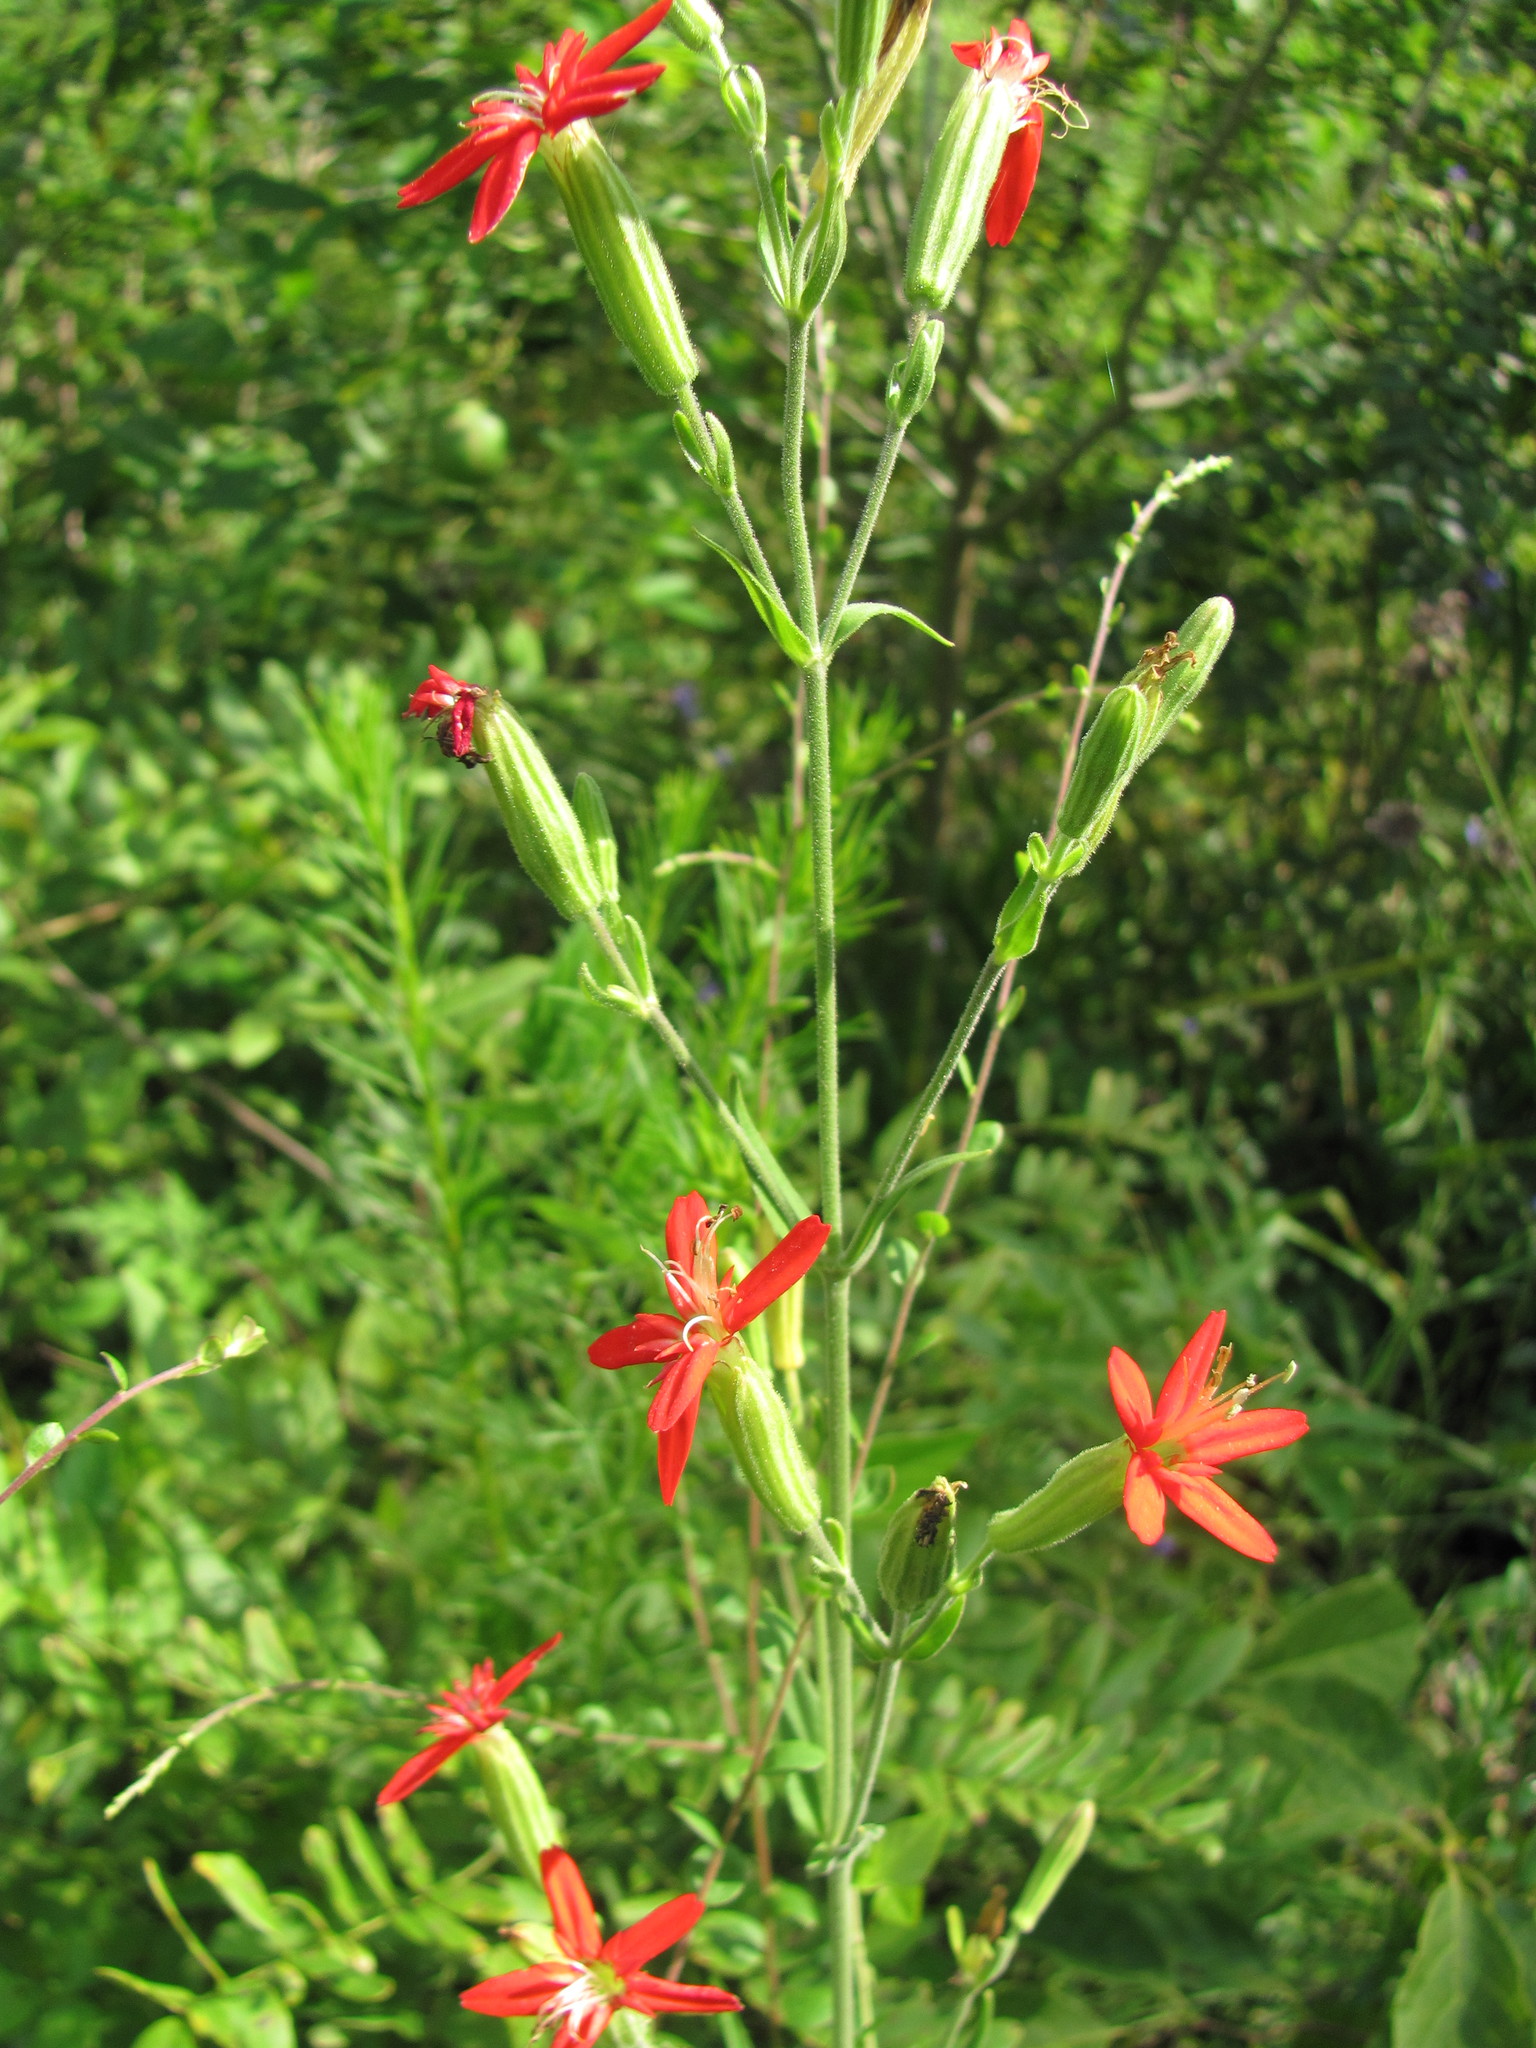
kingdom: Plantae
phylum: Tracheophyta
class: Magnoliopsida
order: Caryophyllales
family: Caryophyllaceae
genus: Silene
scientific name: Silene regia
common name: Royal catchfly
